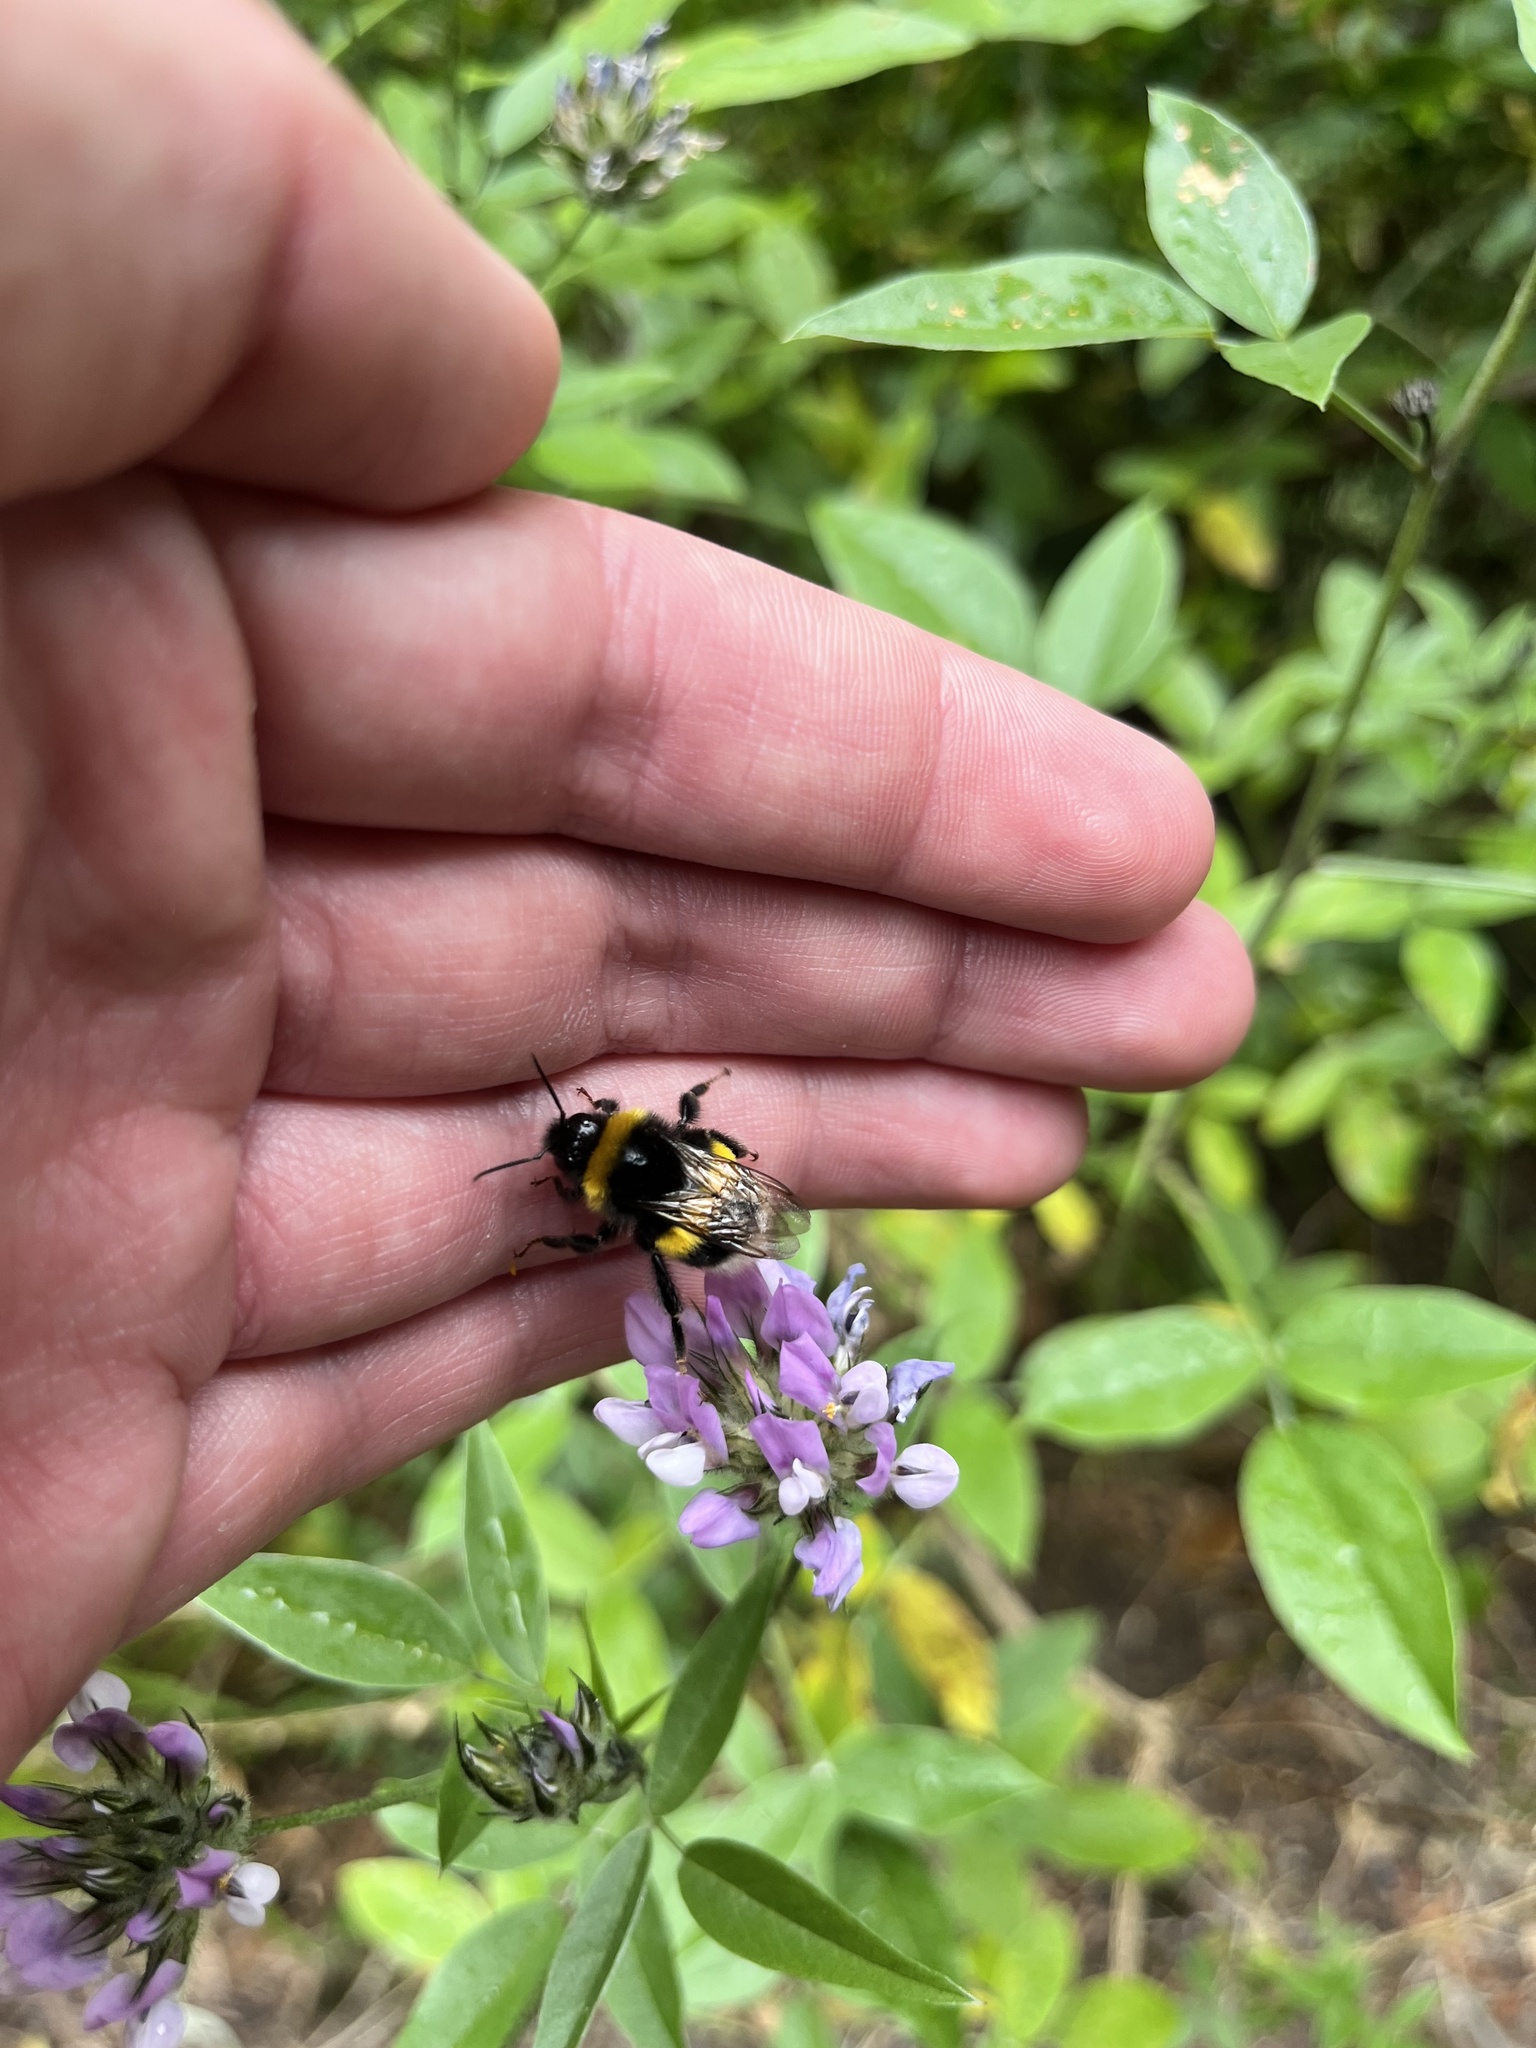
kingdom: Animalia
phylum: Arthropoda
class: Insecta
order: Hymenoptera
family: Apidae
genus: Bombus
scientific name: Bombus terrestris
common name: Buff-tailed bumblebee
